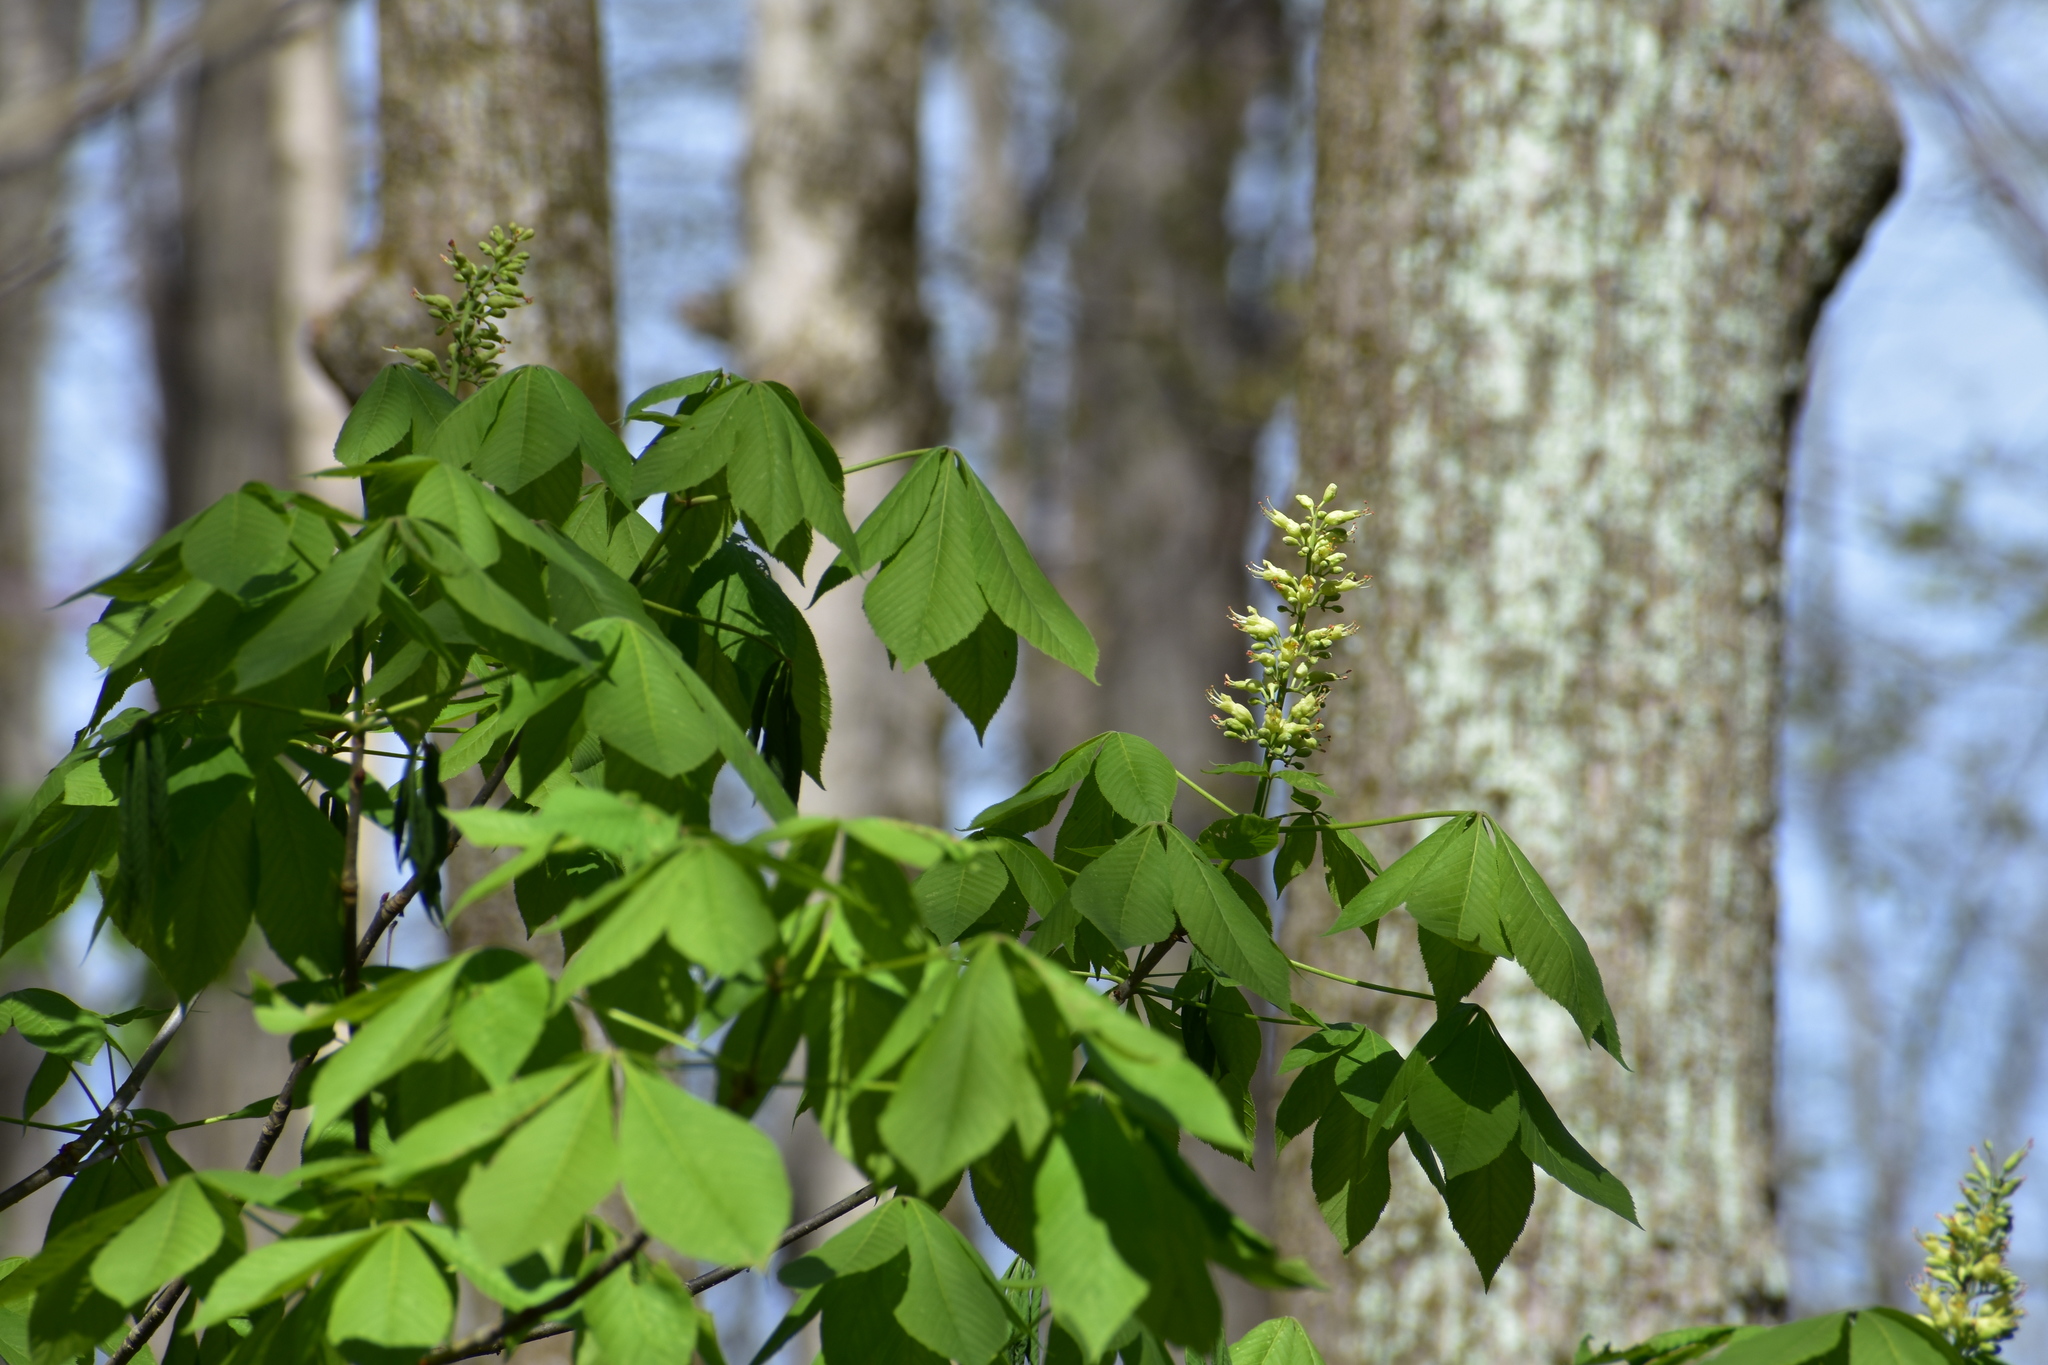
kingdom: Plantae
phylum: Tracheophyta
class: Magnoliopsida
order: Sapindales
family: Sapindaceae
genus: Aesculus
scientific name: Aesculus glabra
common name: Ohio buckeye
